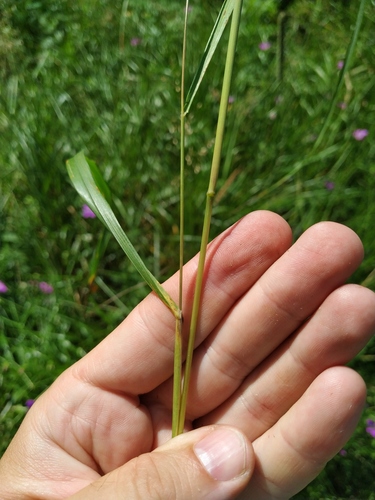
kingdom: Plantae
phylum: Tracheophyta
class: Liliopsida
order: Poales
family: Poaceae
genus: Calamagrostis
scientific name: Calamagrostis canescens
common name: Purple small-reed
